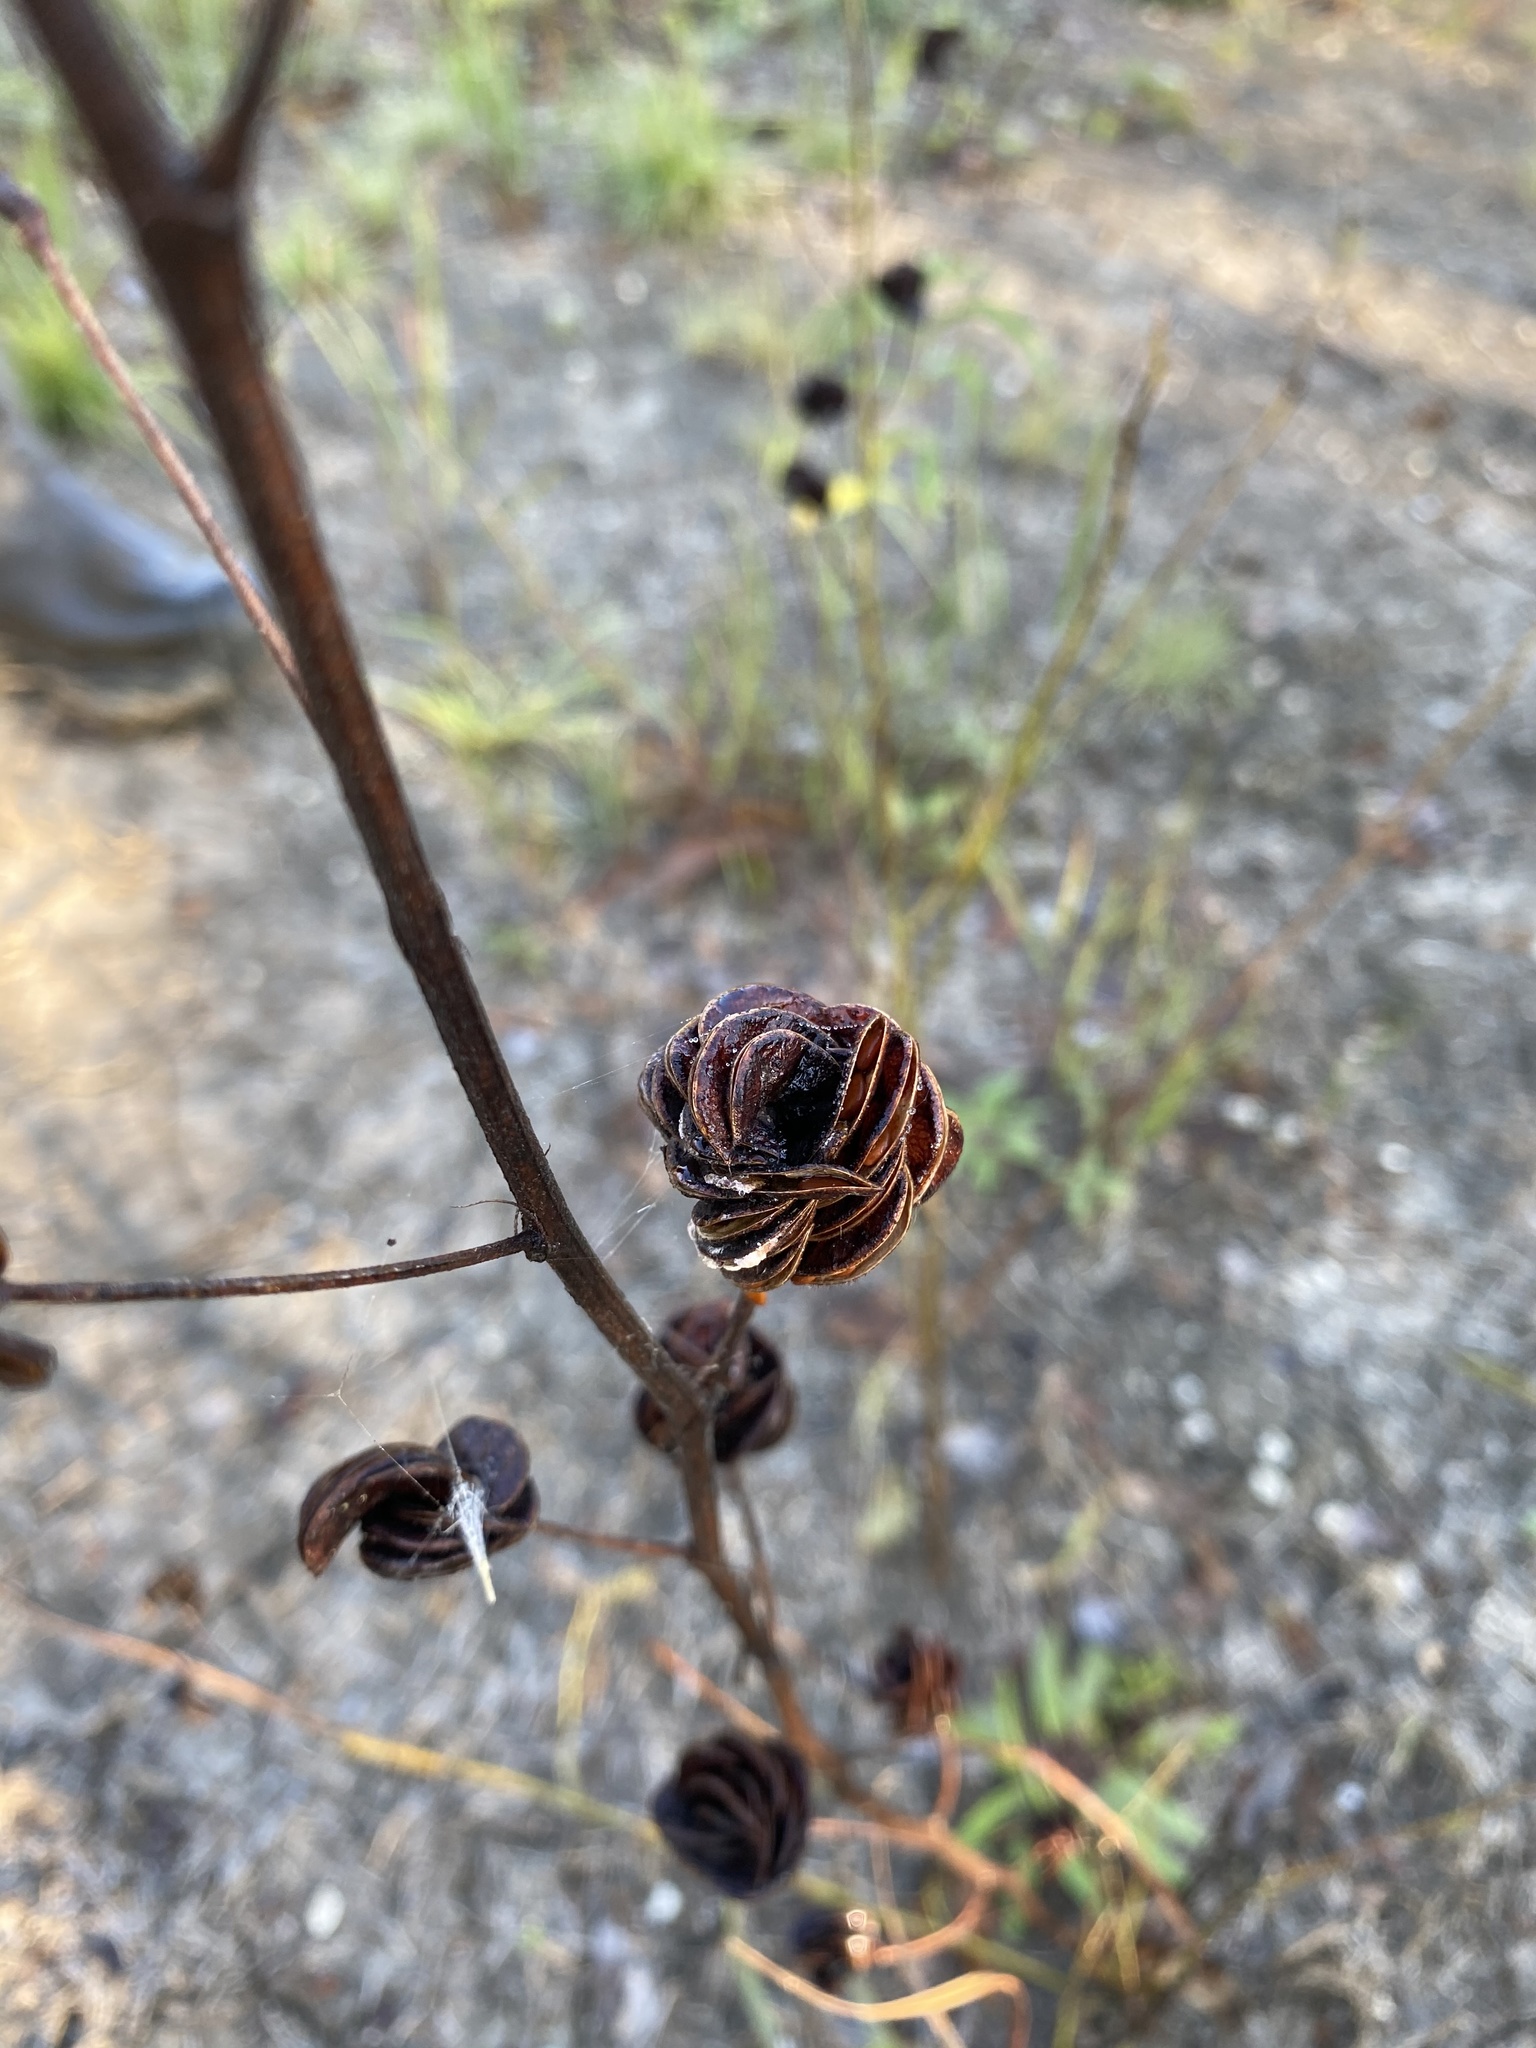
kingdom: Plantae
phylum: Tracheophyta
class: Magnoliopsida
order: Fabales
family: Fabaceae
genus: Desmanthus
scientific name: Desmanthus illinoensis
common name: Illinois bundle-flower
